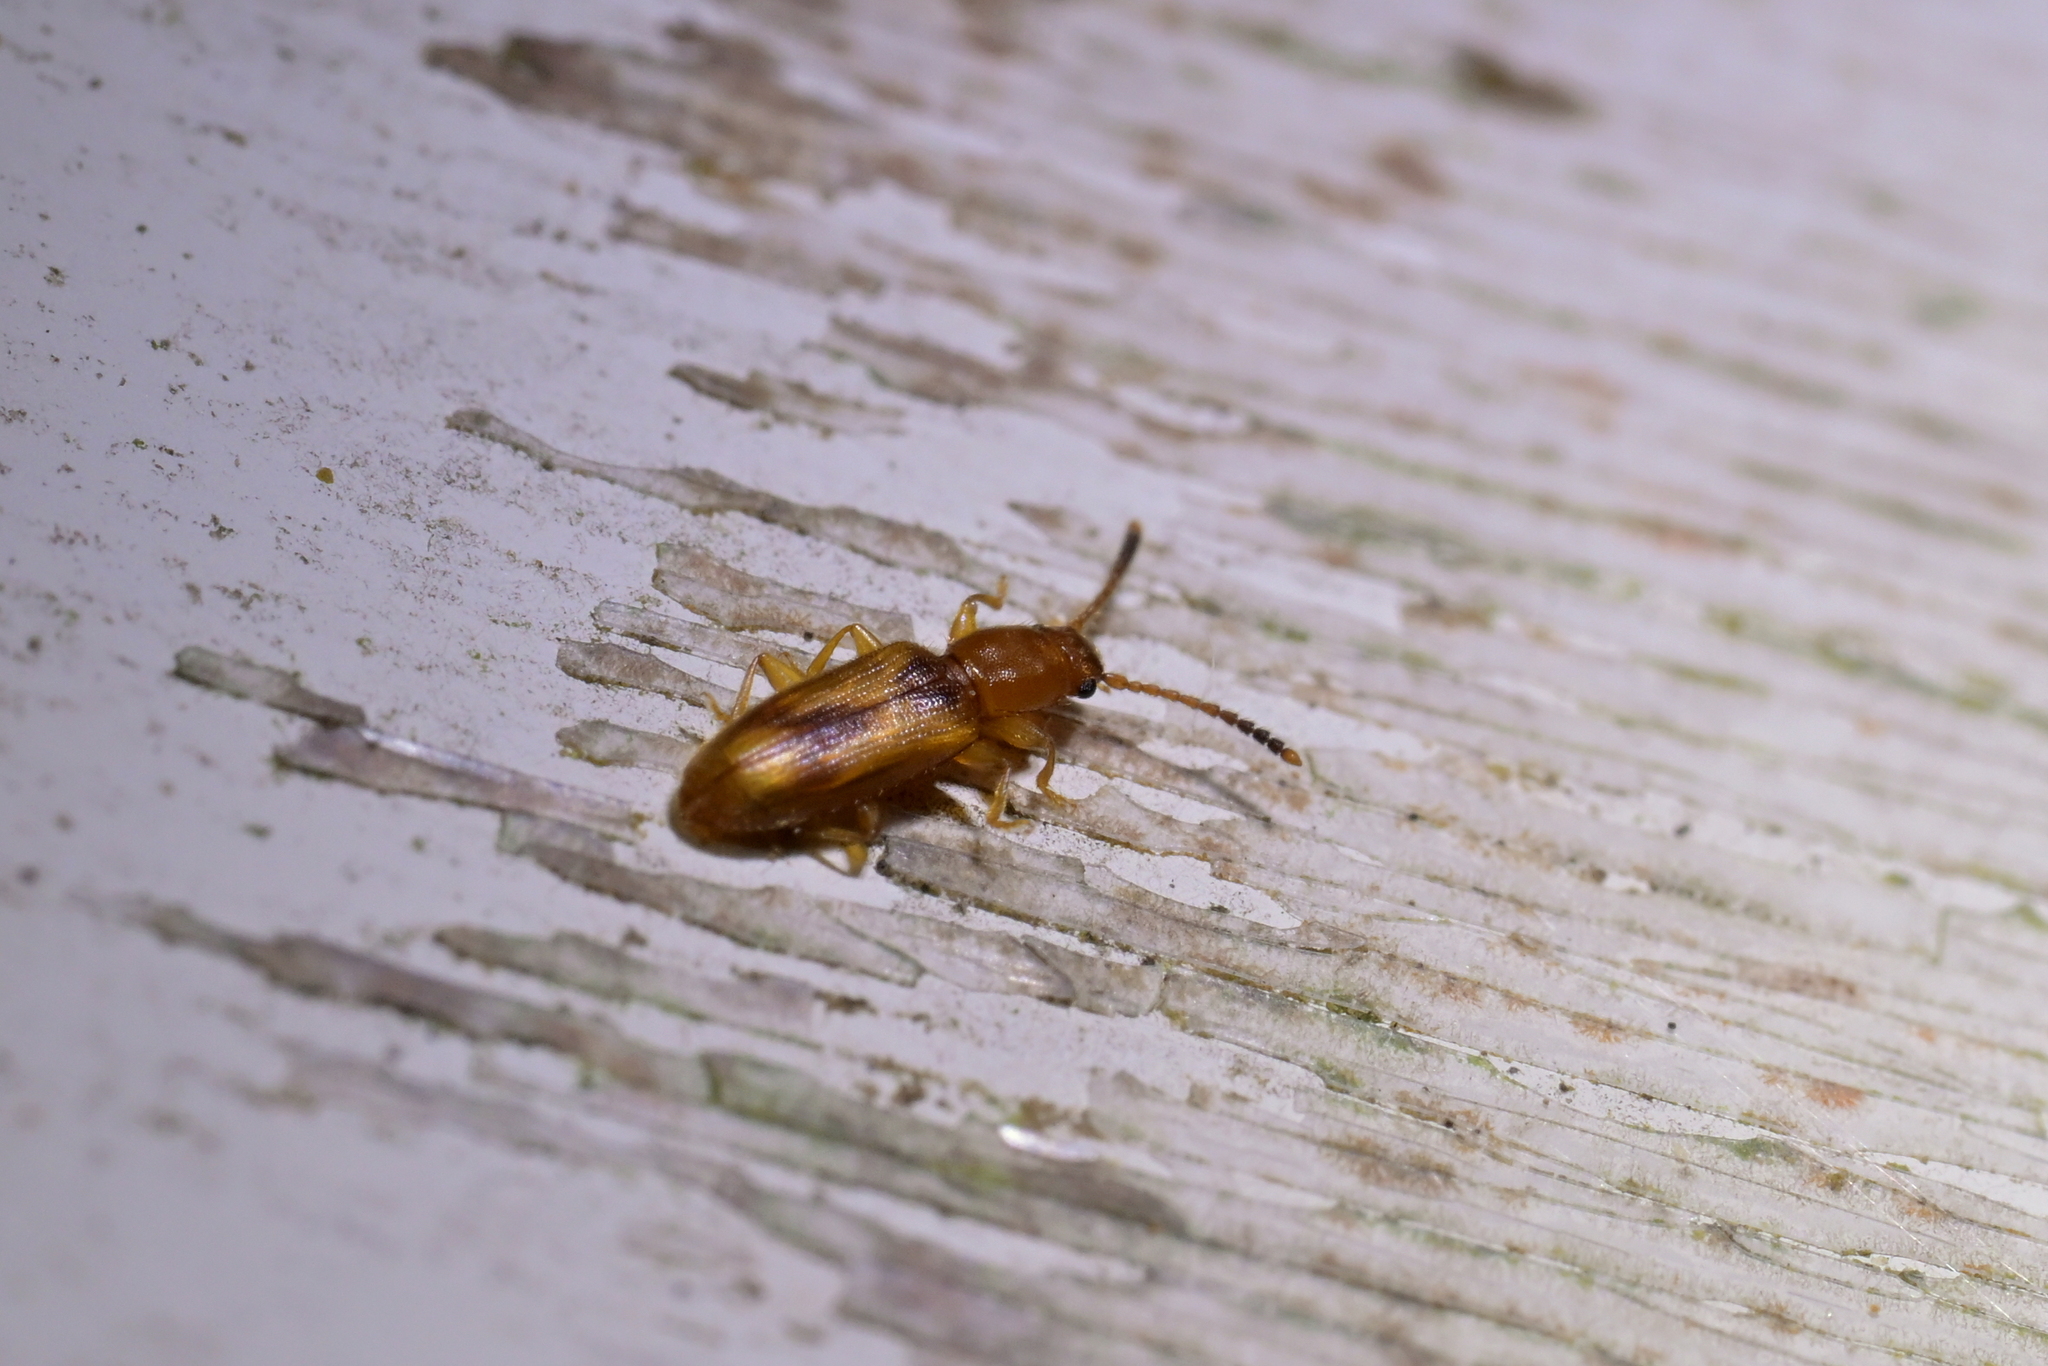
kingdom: Animalia
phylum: Arthropoda
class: Insecta
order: Coleoptera
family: Silvanidae
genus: Cryptamorpha
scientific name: Cryptamorpha desjardinsi
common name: Cryptamorpha
